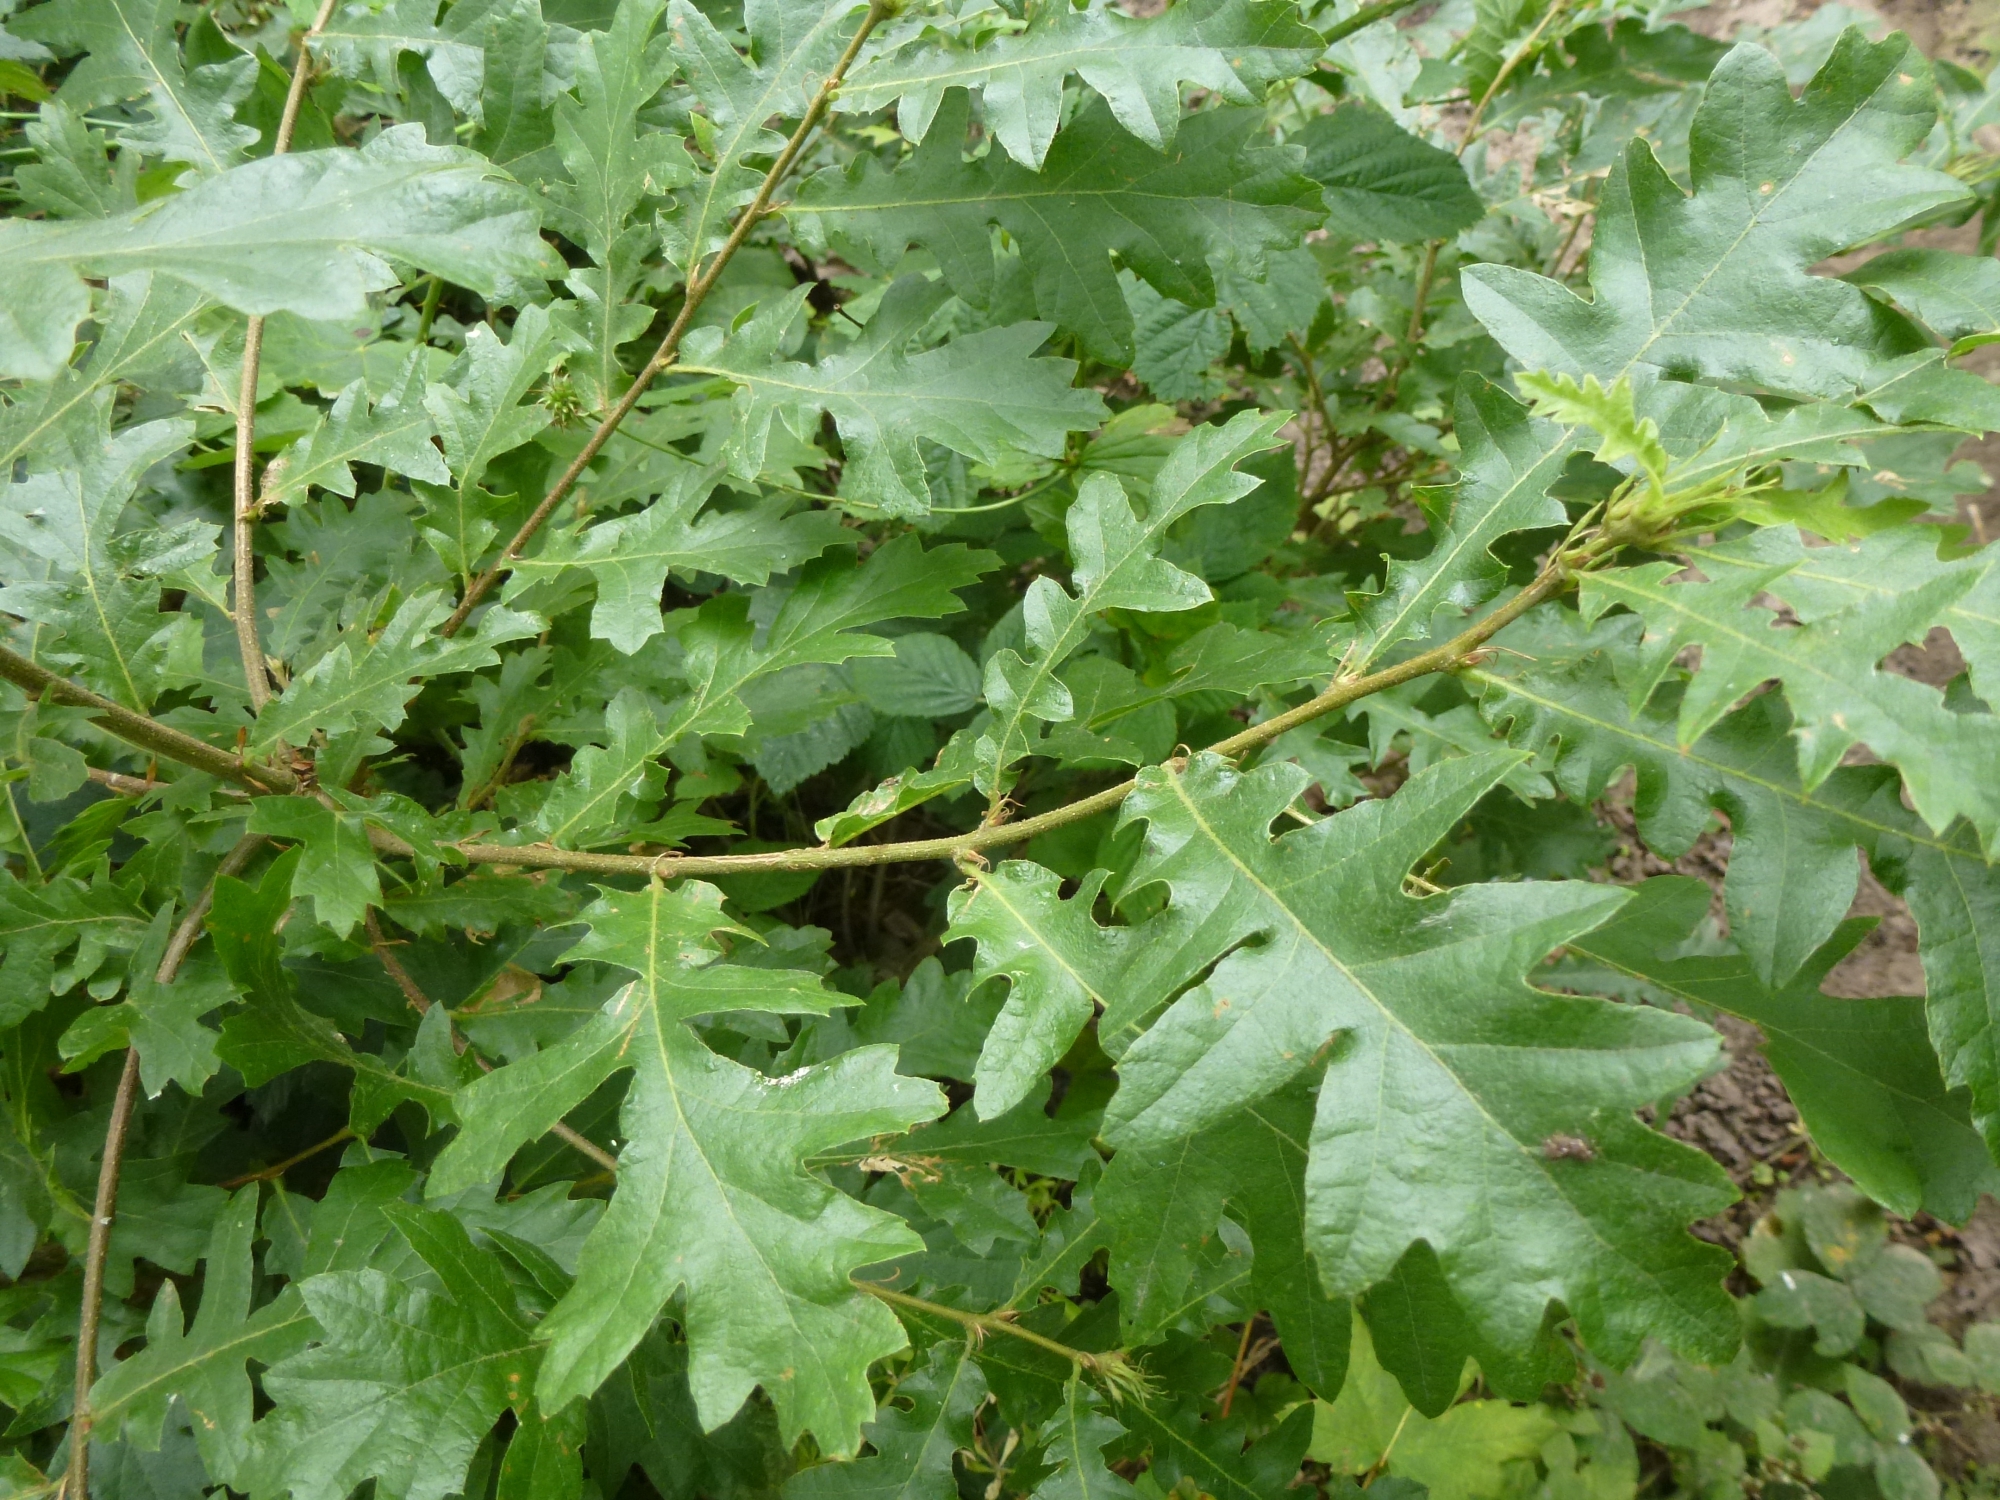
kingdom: Plantae
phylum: Tracheophyta
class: Magnoliopsida
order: Fagales
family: Fagaceae
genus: Quercus
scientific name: Quercus cerris
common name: Turkey oak
